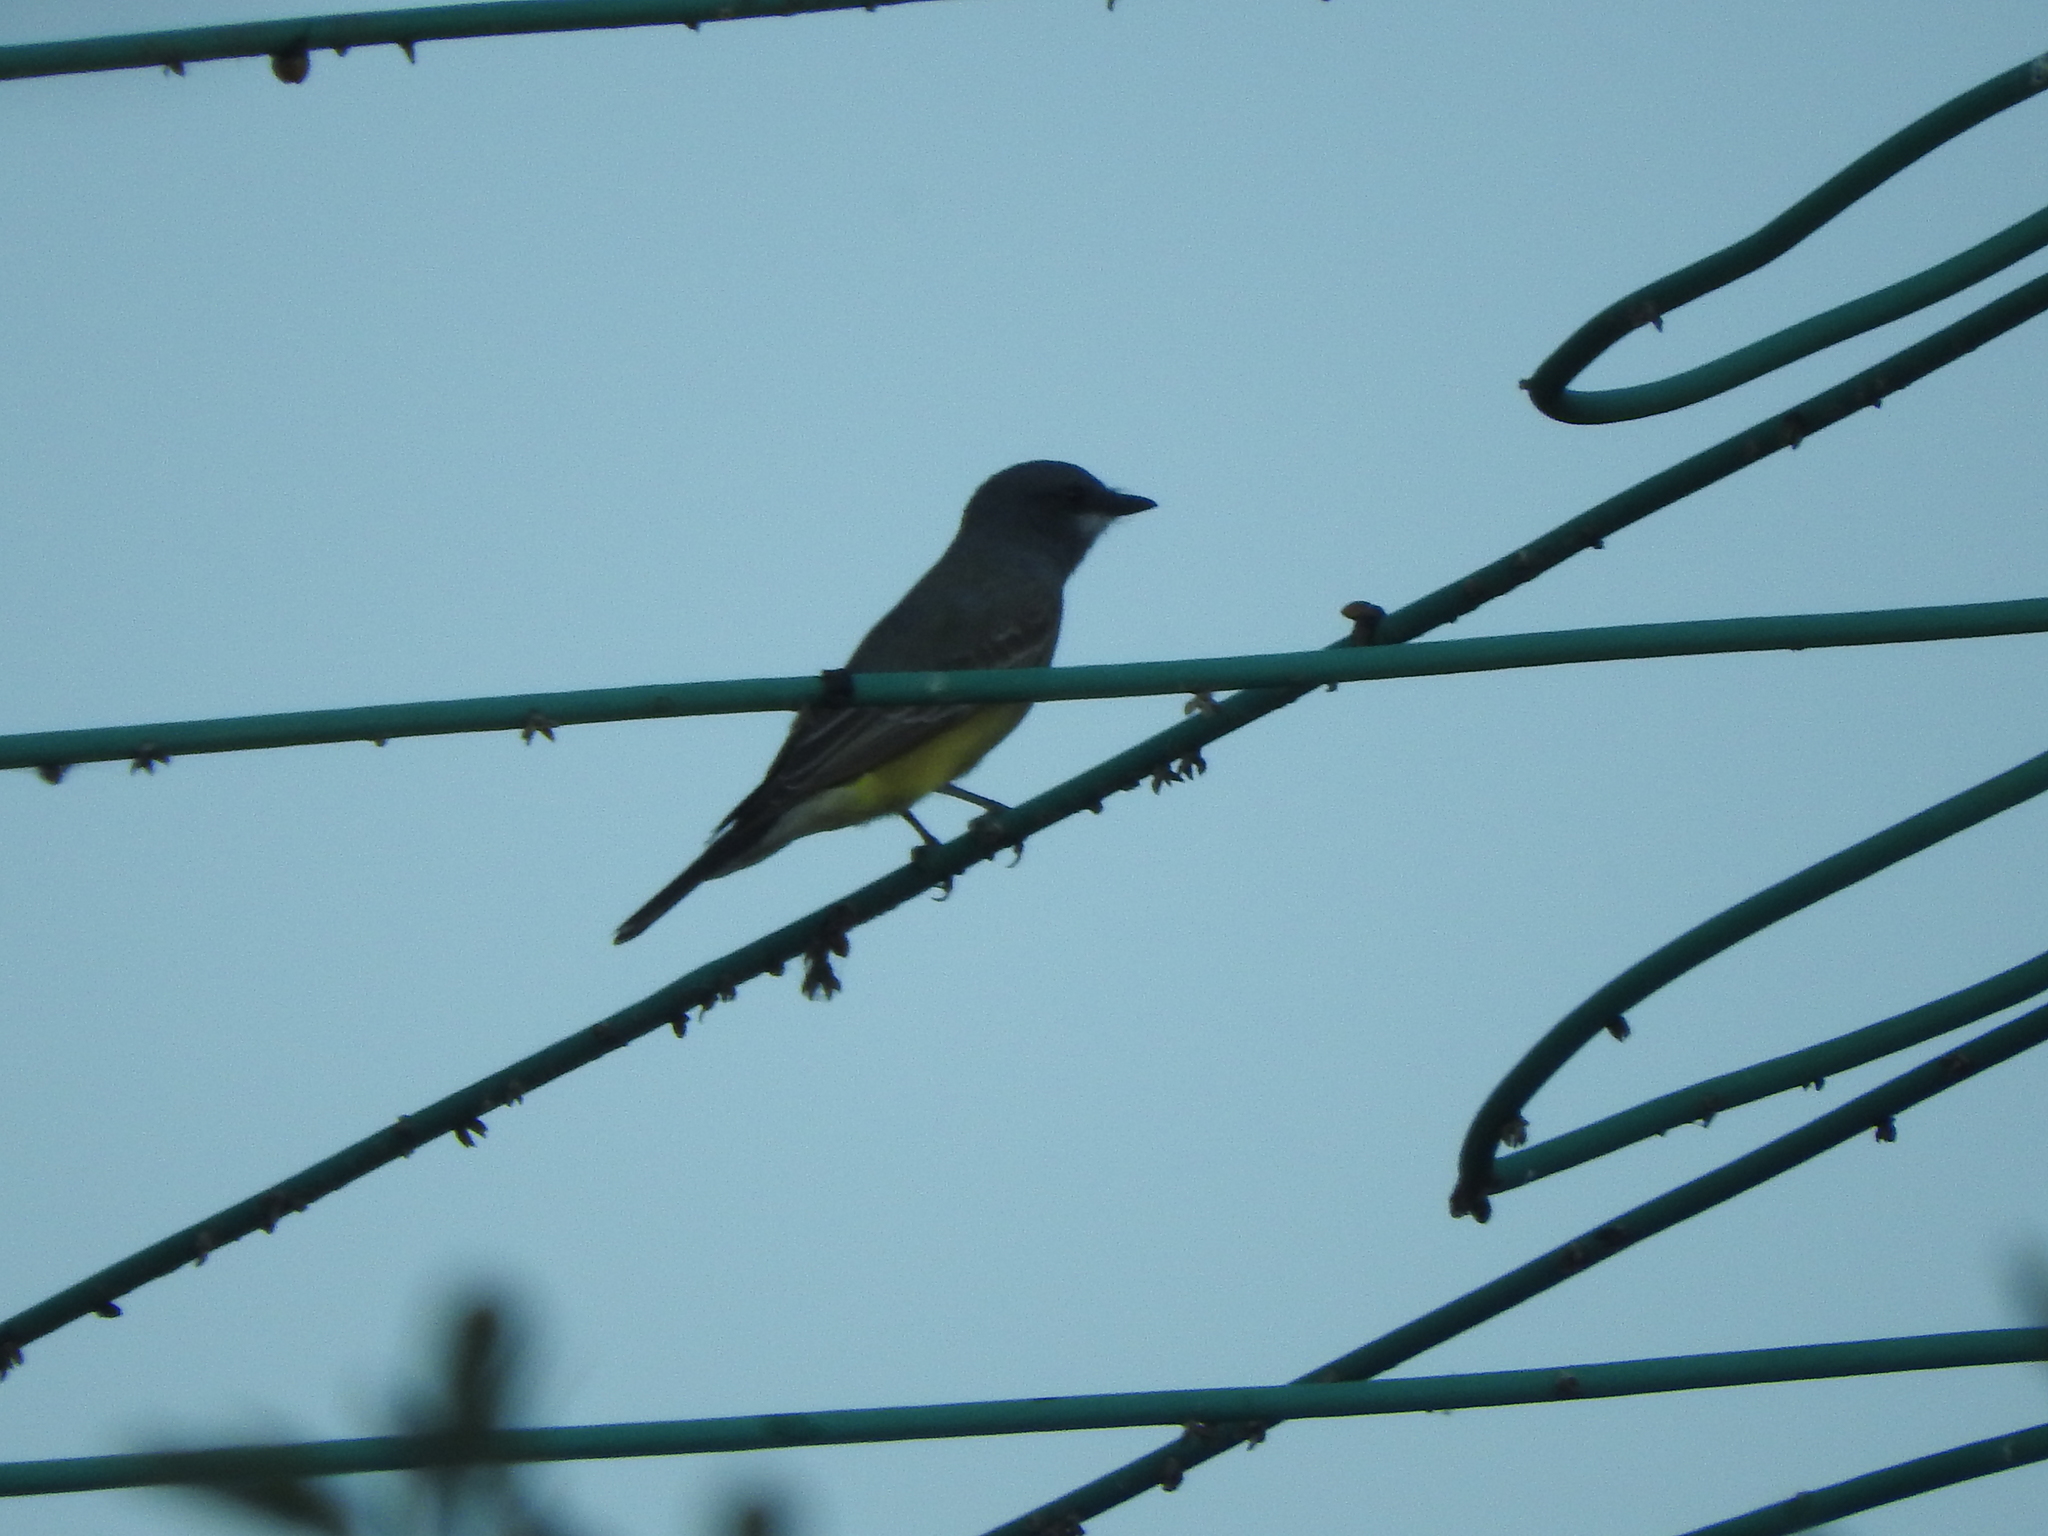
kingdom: Animalia
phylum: Chordata
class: Aves
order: Passeriformes
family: Tyrannidae
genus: Tyrannus
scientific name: Tyrannus vociferans
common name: Cassin's kingbird
